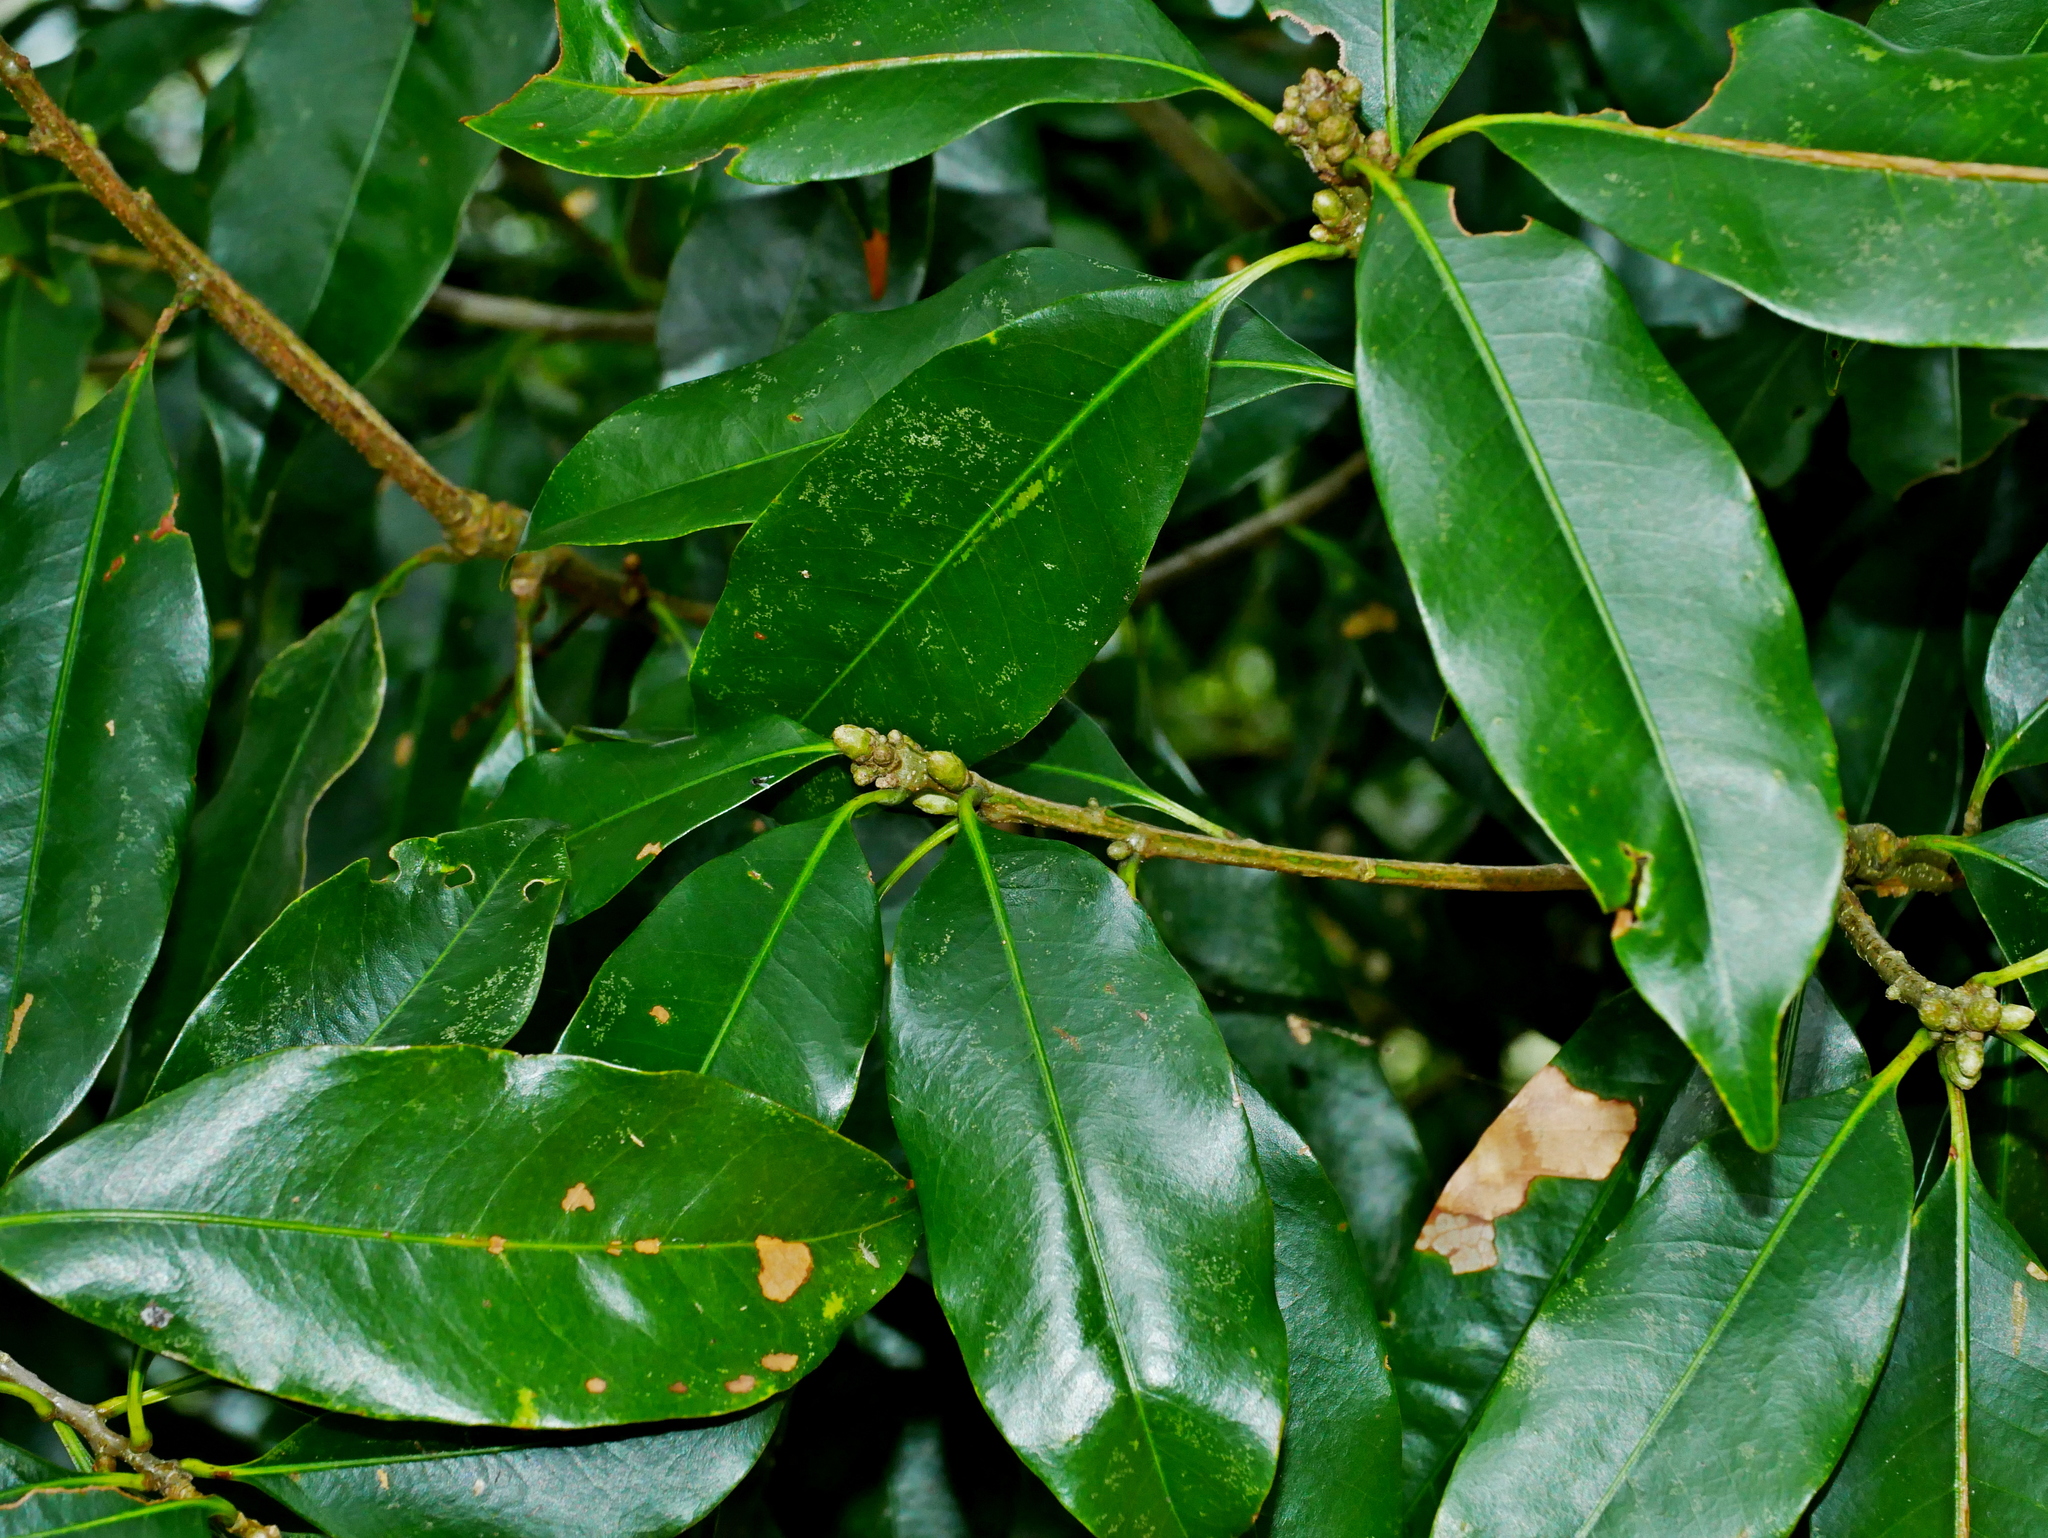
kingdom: Plantae
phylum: Tracheophyta
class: Magnoliopsida
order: Fagales
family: Fagaceae
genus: Lithocarpus
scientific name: Lithocarpus hancei
